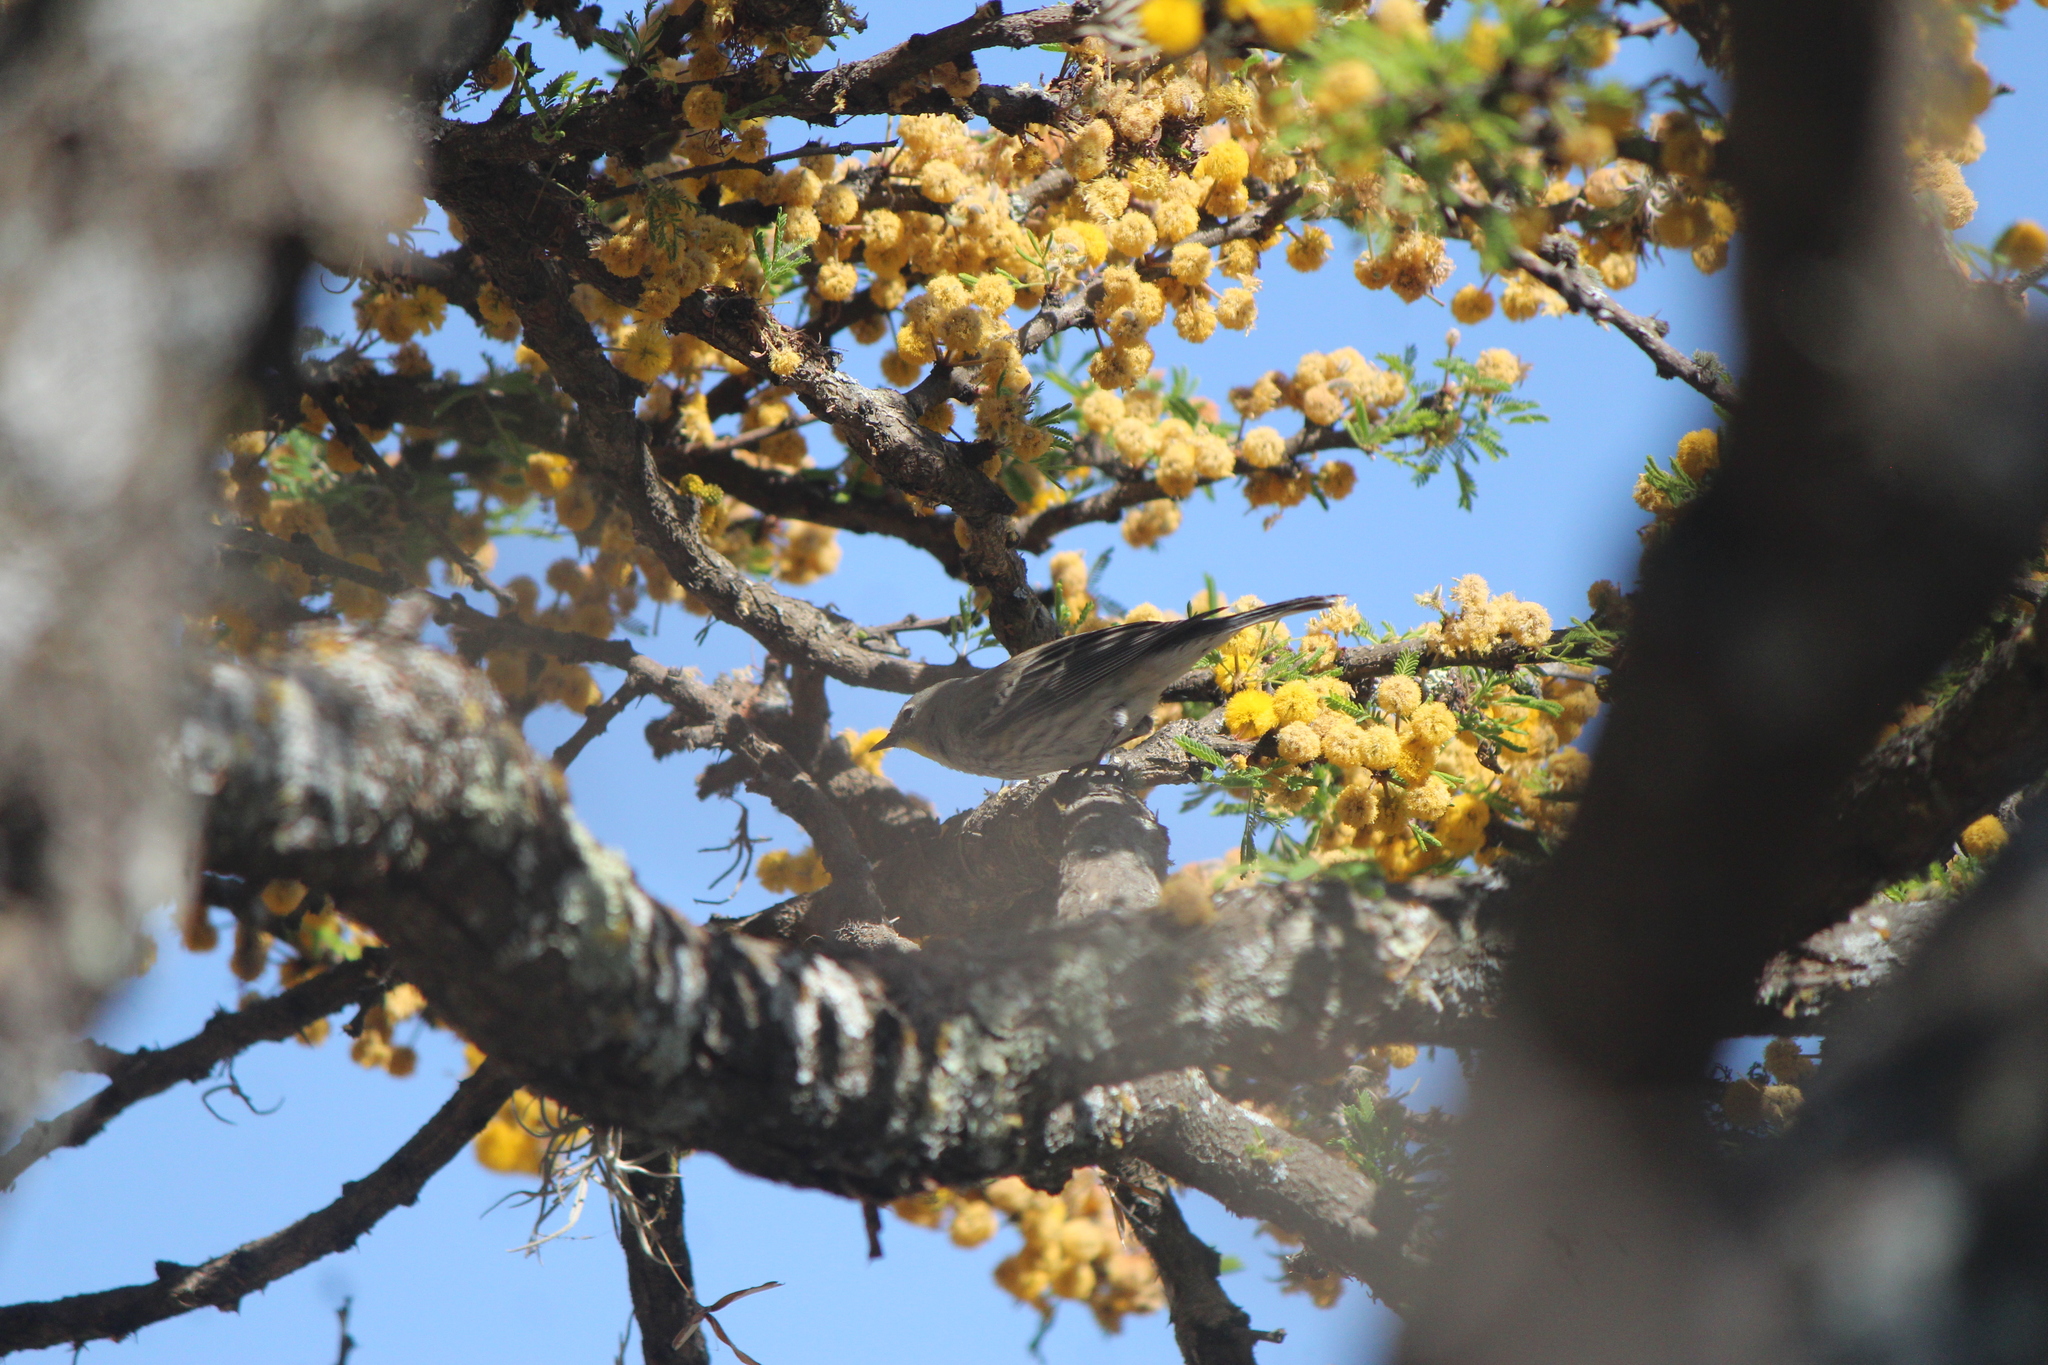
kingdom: Animalia
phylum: Chordata
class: Aves
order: Passeriformes
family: Parulidae
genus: Setophaga
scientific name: Setophaga auduboni
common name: Audubon's warbler
